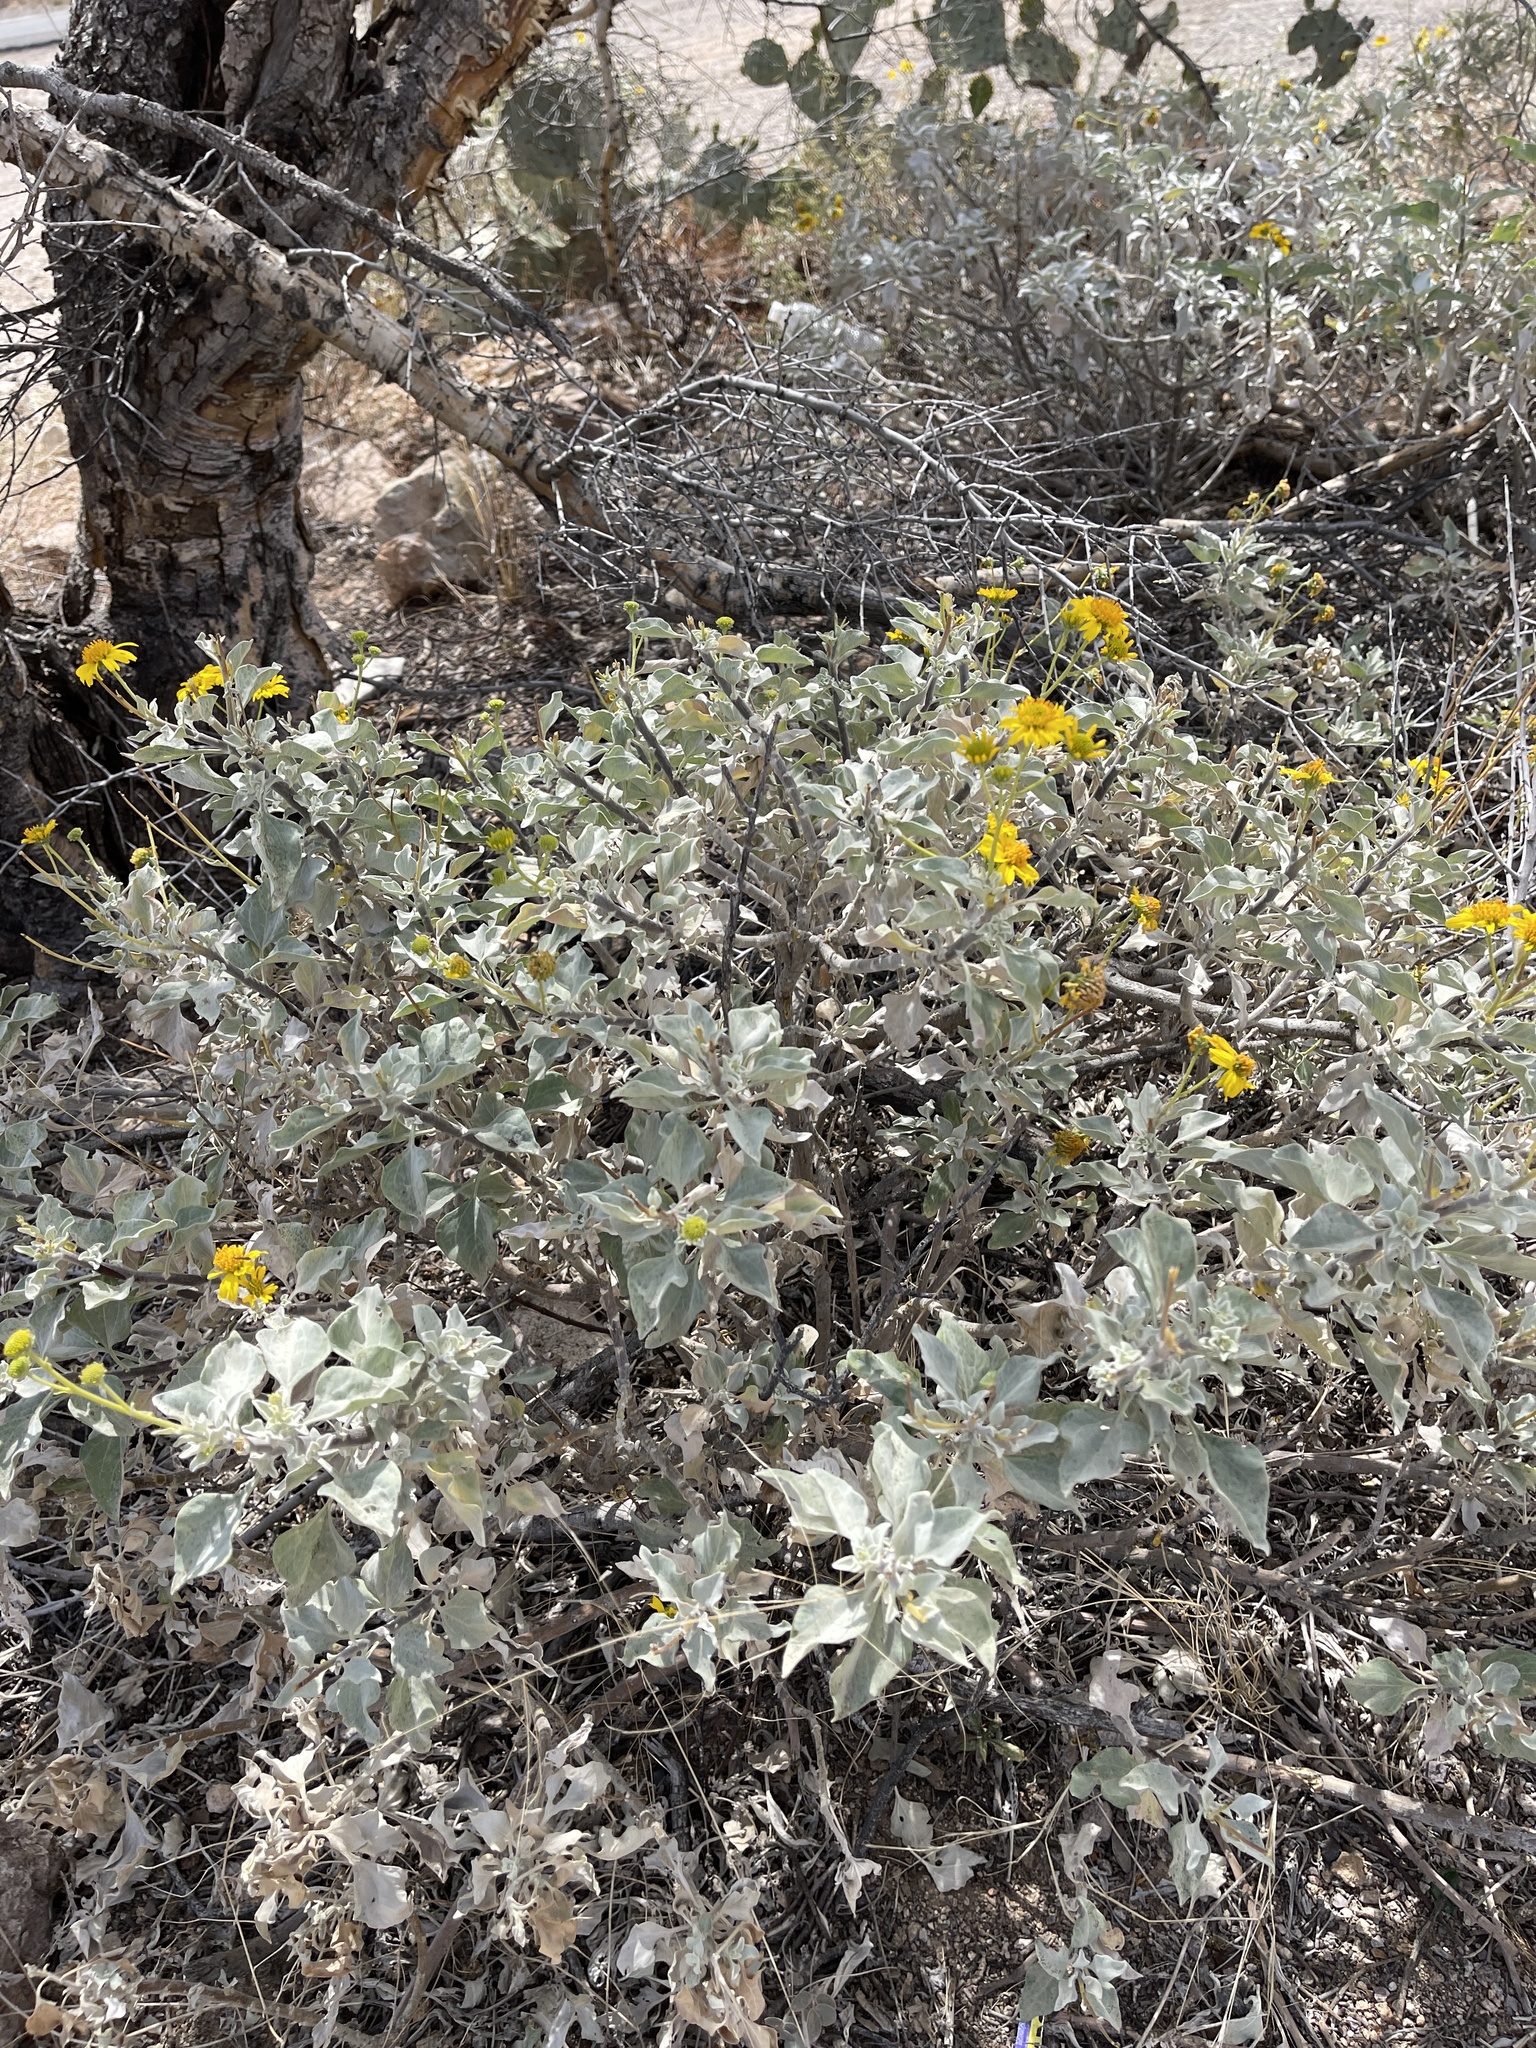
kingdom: Plantae
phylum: Tracheophyta
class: Magnoliopsida
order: Asterales
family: Asteraceae
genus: Encelia
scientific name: Encelia farinosa
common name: Brittlebush
